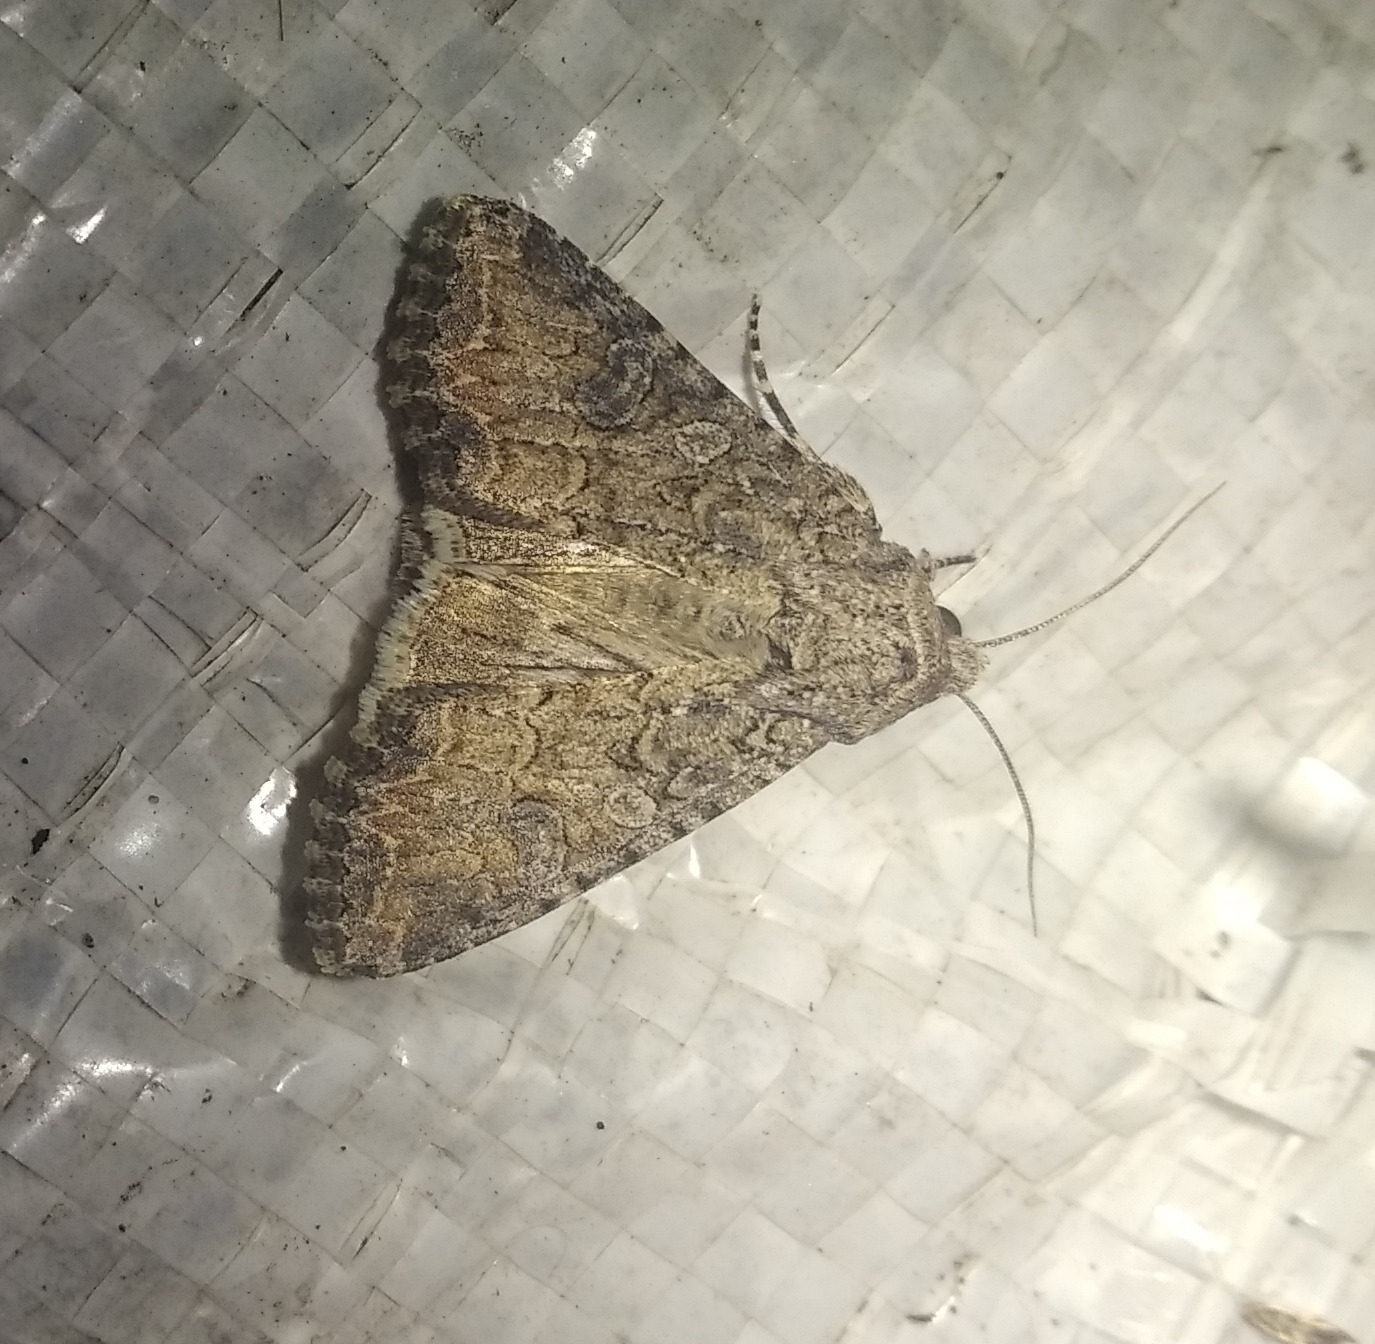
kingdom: Animalia
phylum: Arthropoda
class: Insecta
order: Lepidoptera
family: Noctuidae
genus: Anarta
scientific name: Anarta trifolii
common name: Clover cutworm moth
